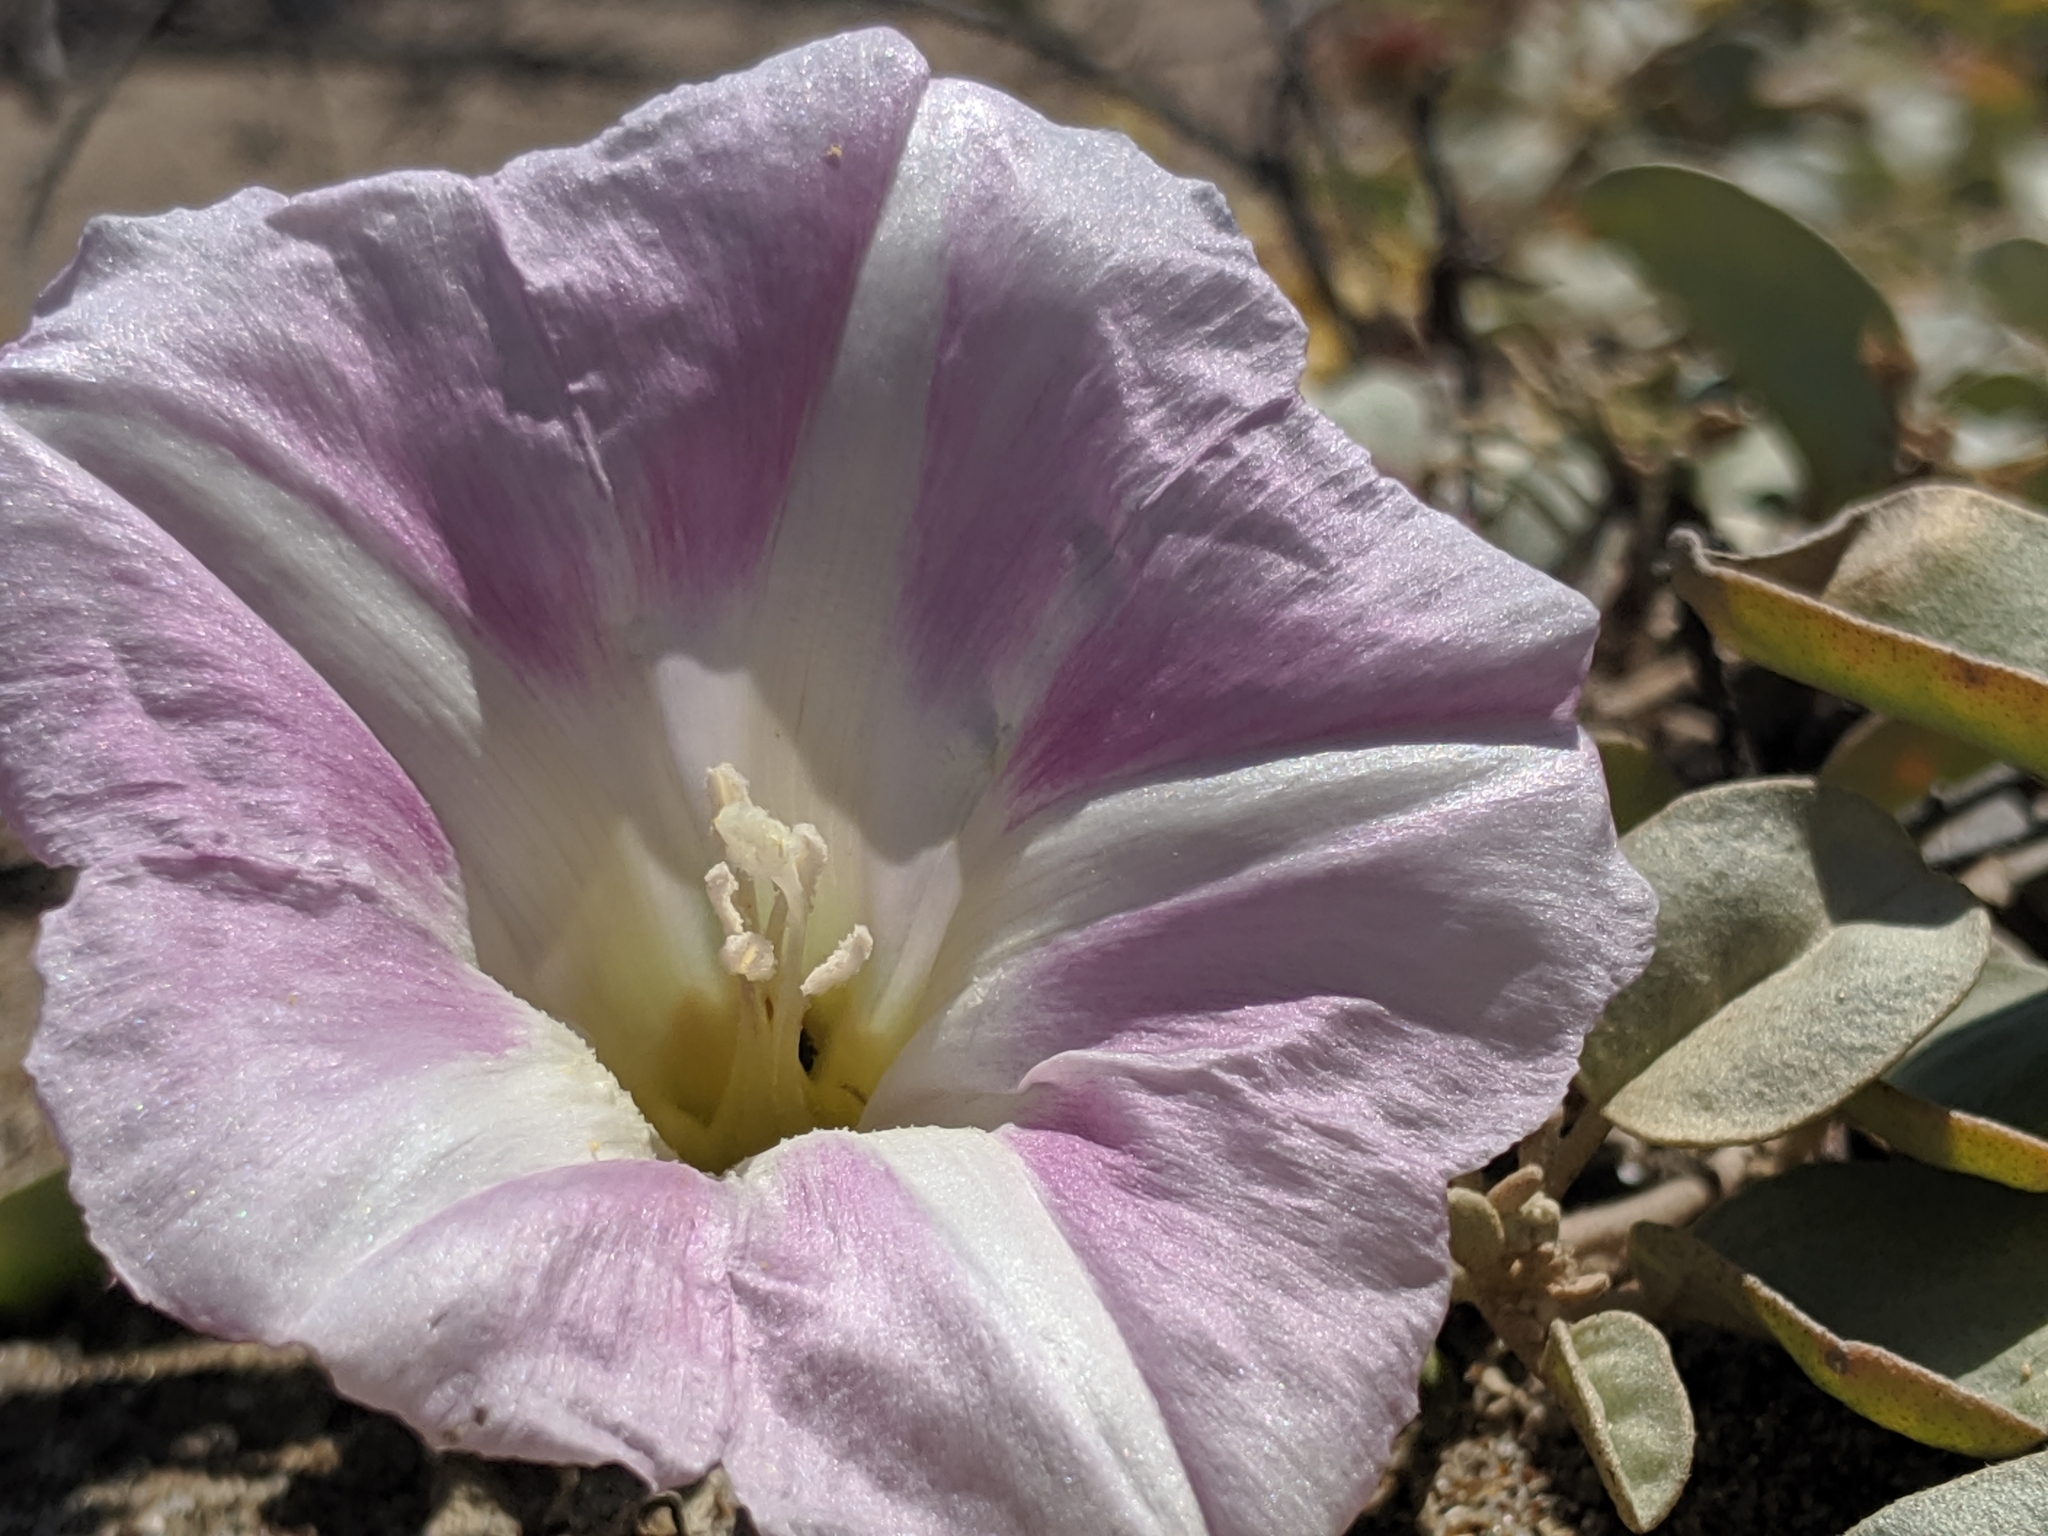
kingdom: Plantae
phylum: Tracheophyta
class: Magnoliopsida
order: Solanales
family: Convolvulaceae
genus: Calystegia
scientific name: Calystegia soldanella
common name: Sea bindweed
